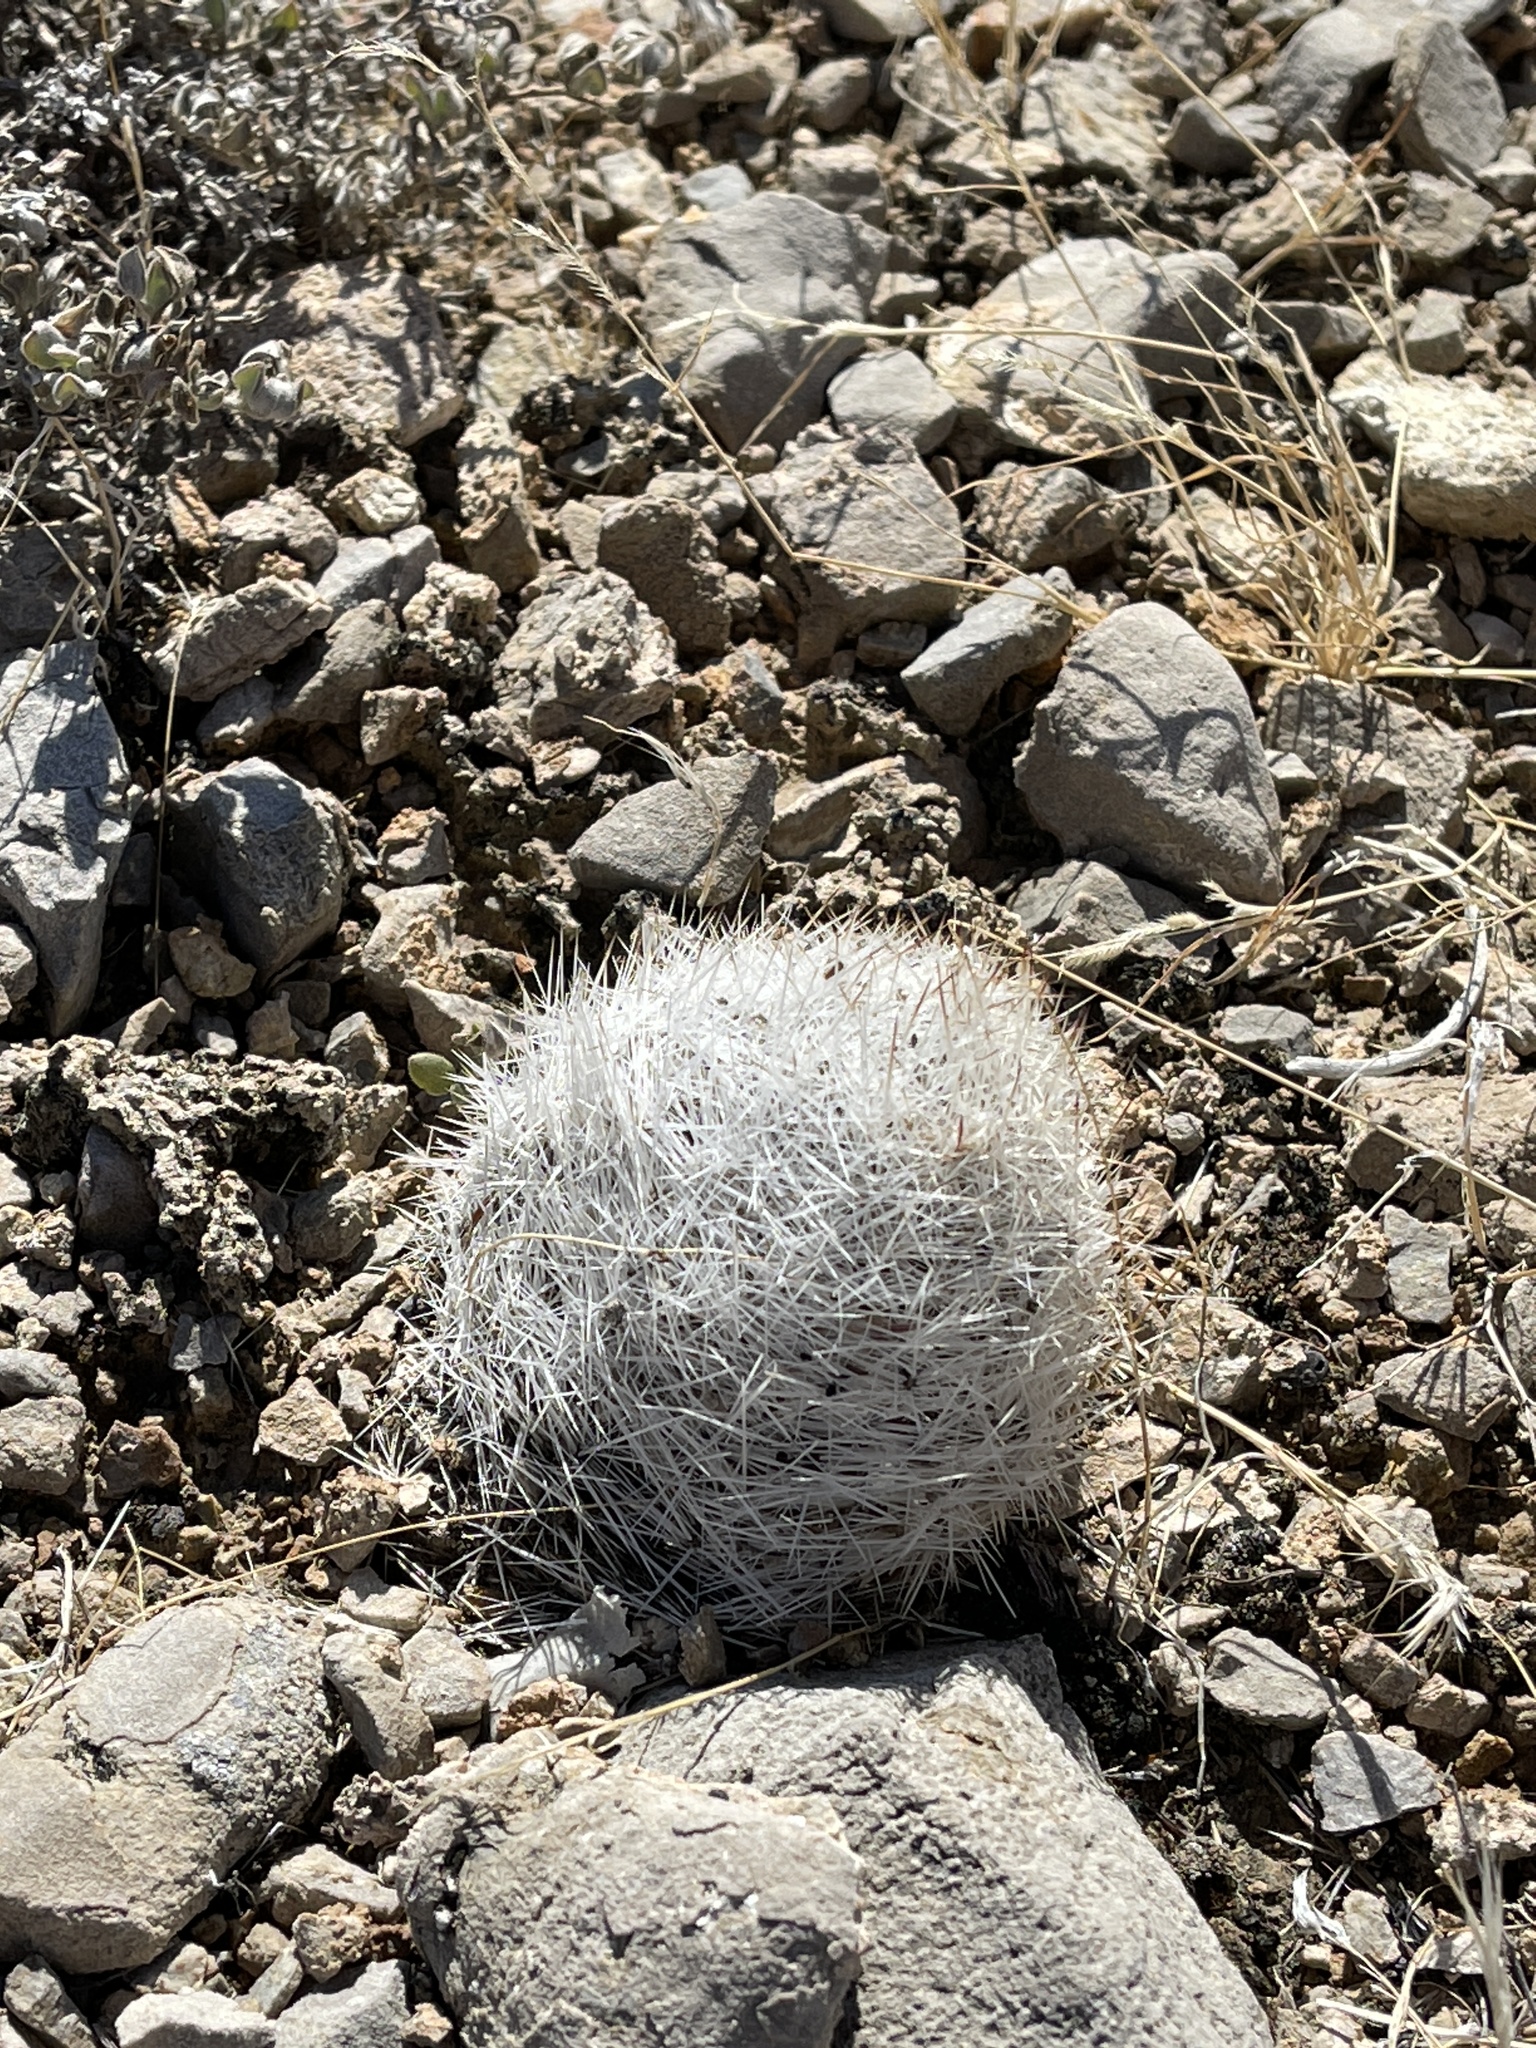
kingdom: Plantae
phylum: Tracheophyta
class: Magnoliopsida
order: Caryophyllales
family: Cactaceae
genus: Pelecyphora
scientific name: Pelecyphora dasyacantha
